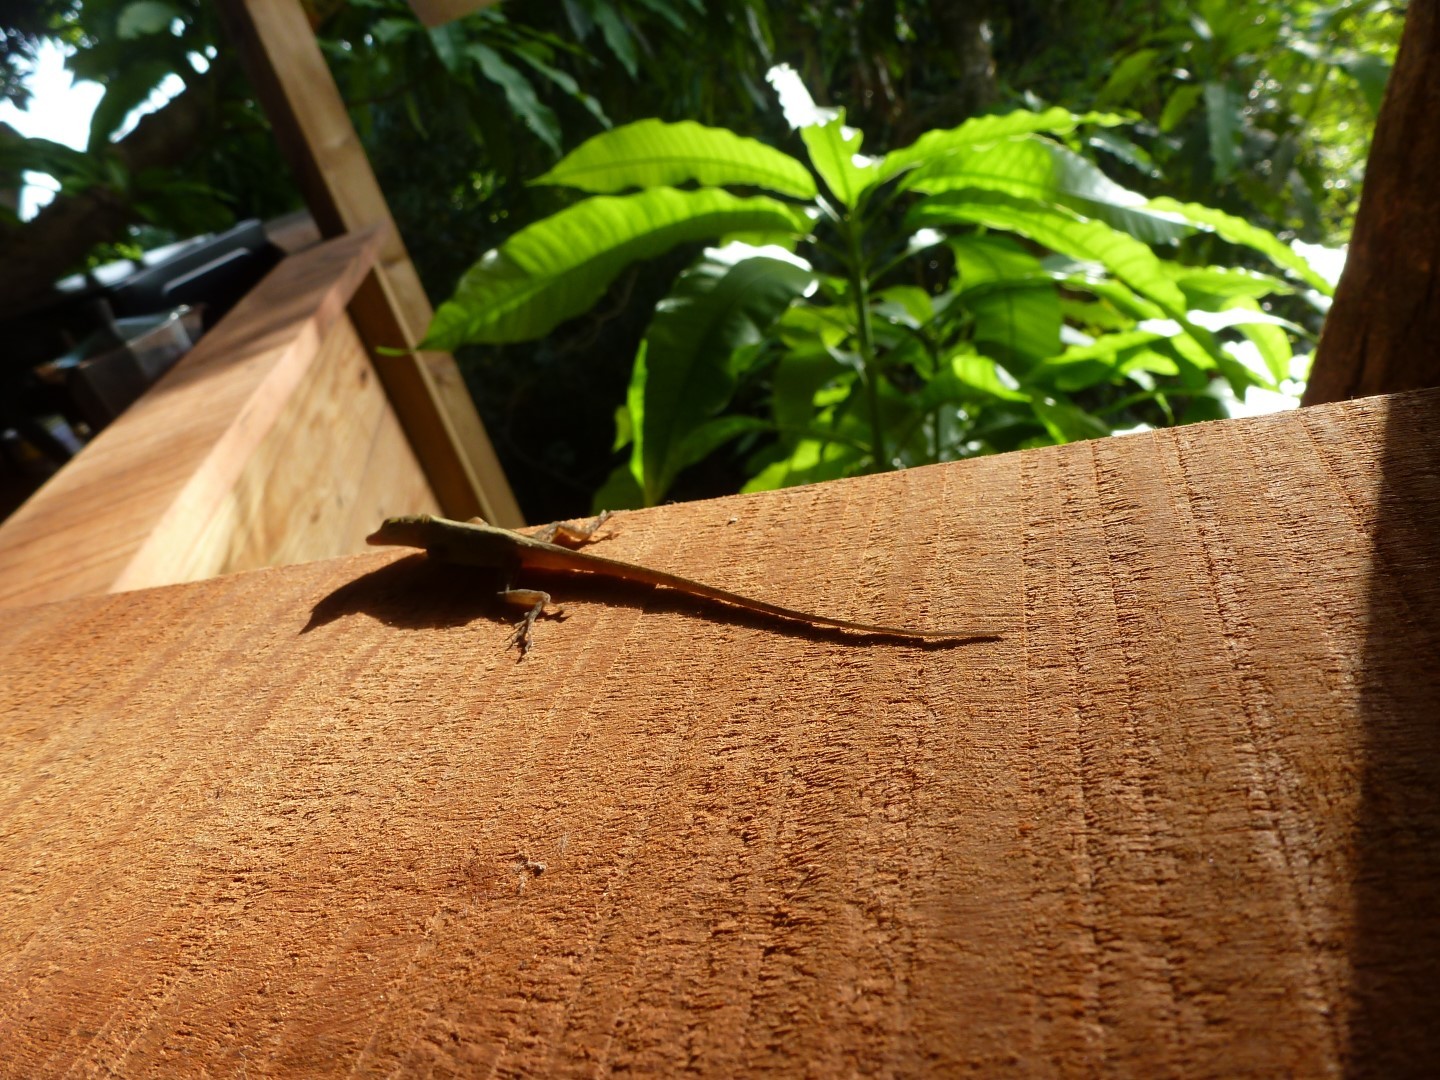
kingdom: Animalia
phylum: Chordata
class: Squamata
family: Dactyloidae
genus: Anolis
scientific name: Anolis marmoratus
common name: Guadeloupe anole
